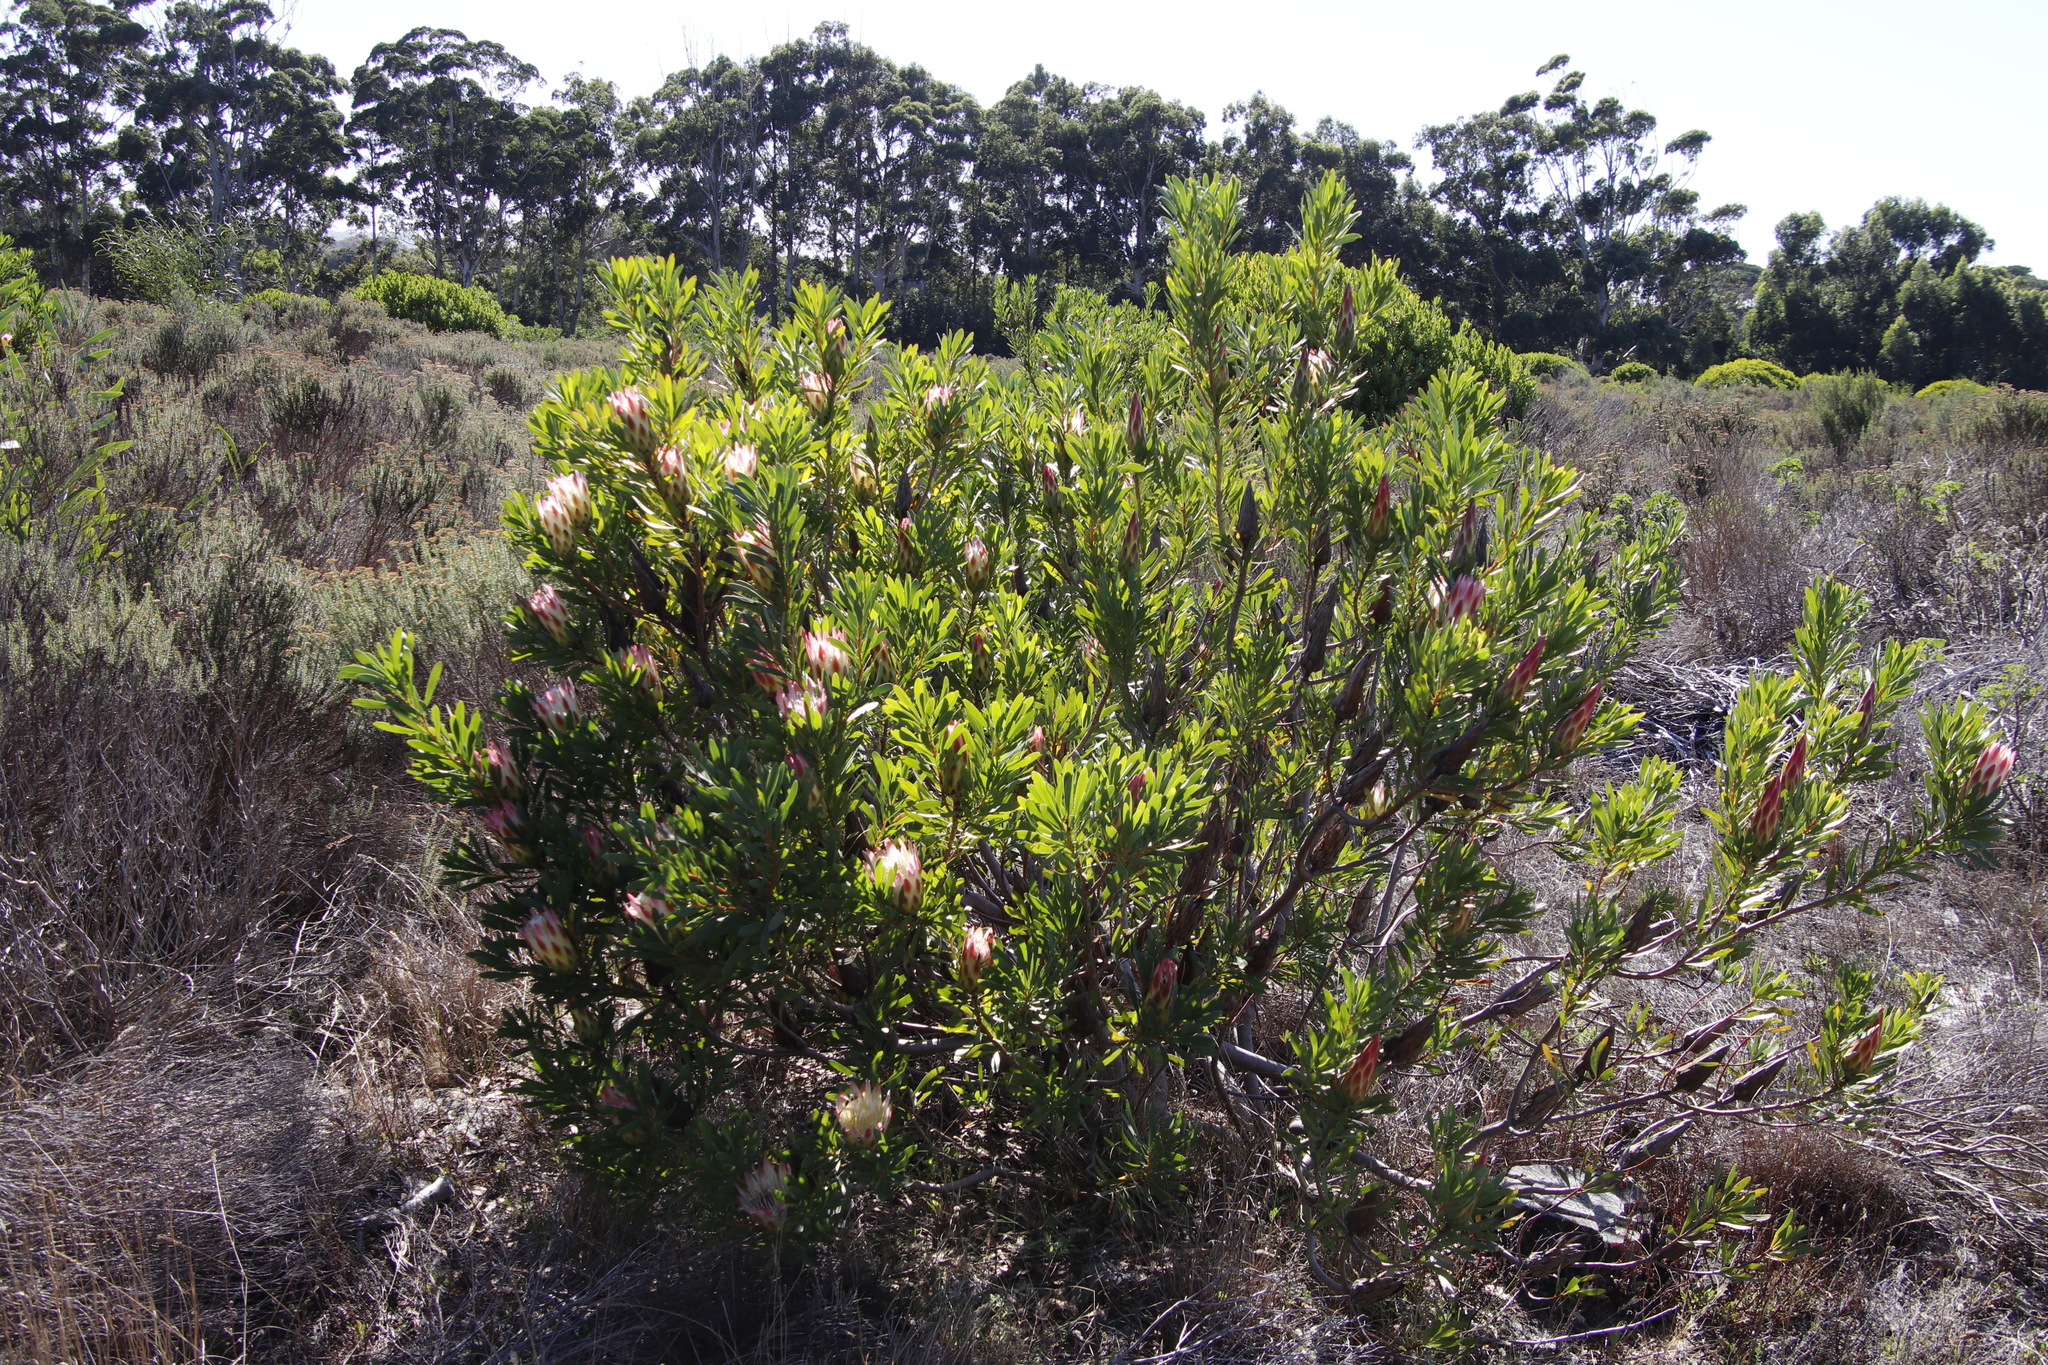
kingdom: Plantae
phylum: Tracheophyta
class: Magnoliopsida
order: Proteales
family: Proteaceae
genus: Protea
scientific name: Protea repens
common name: Sugarbush
